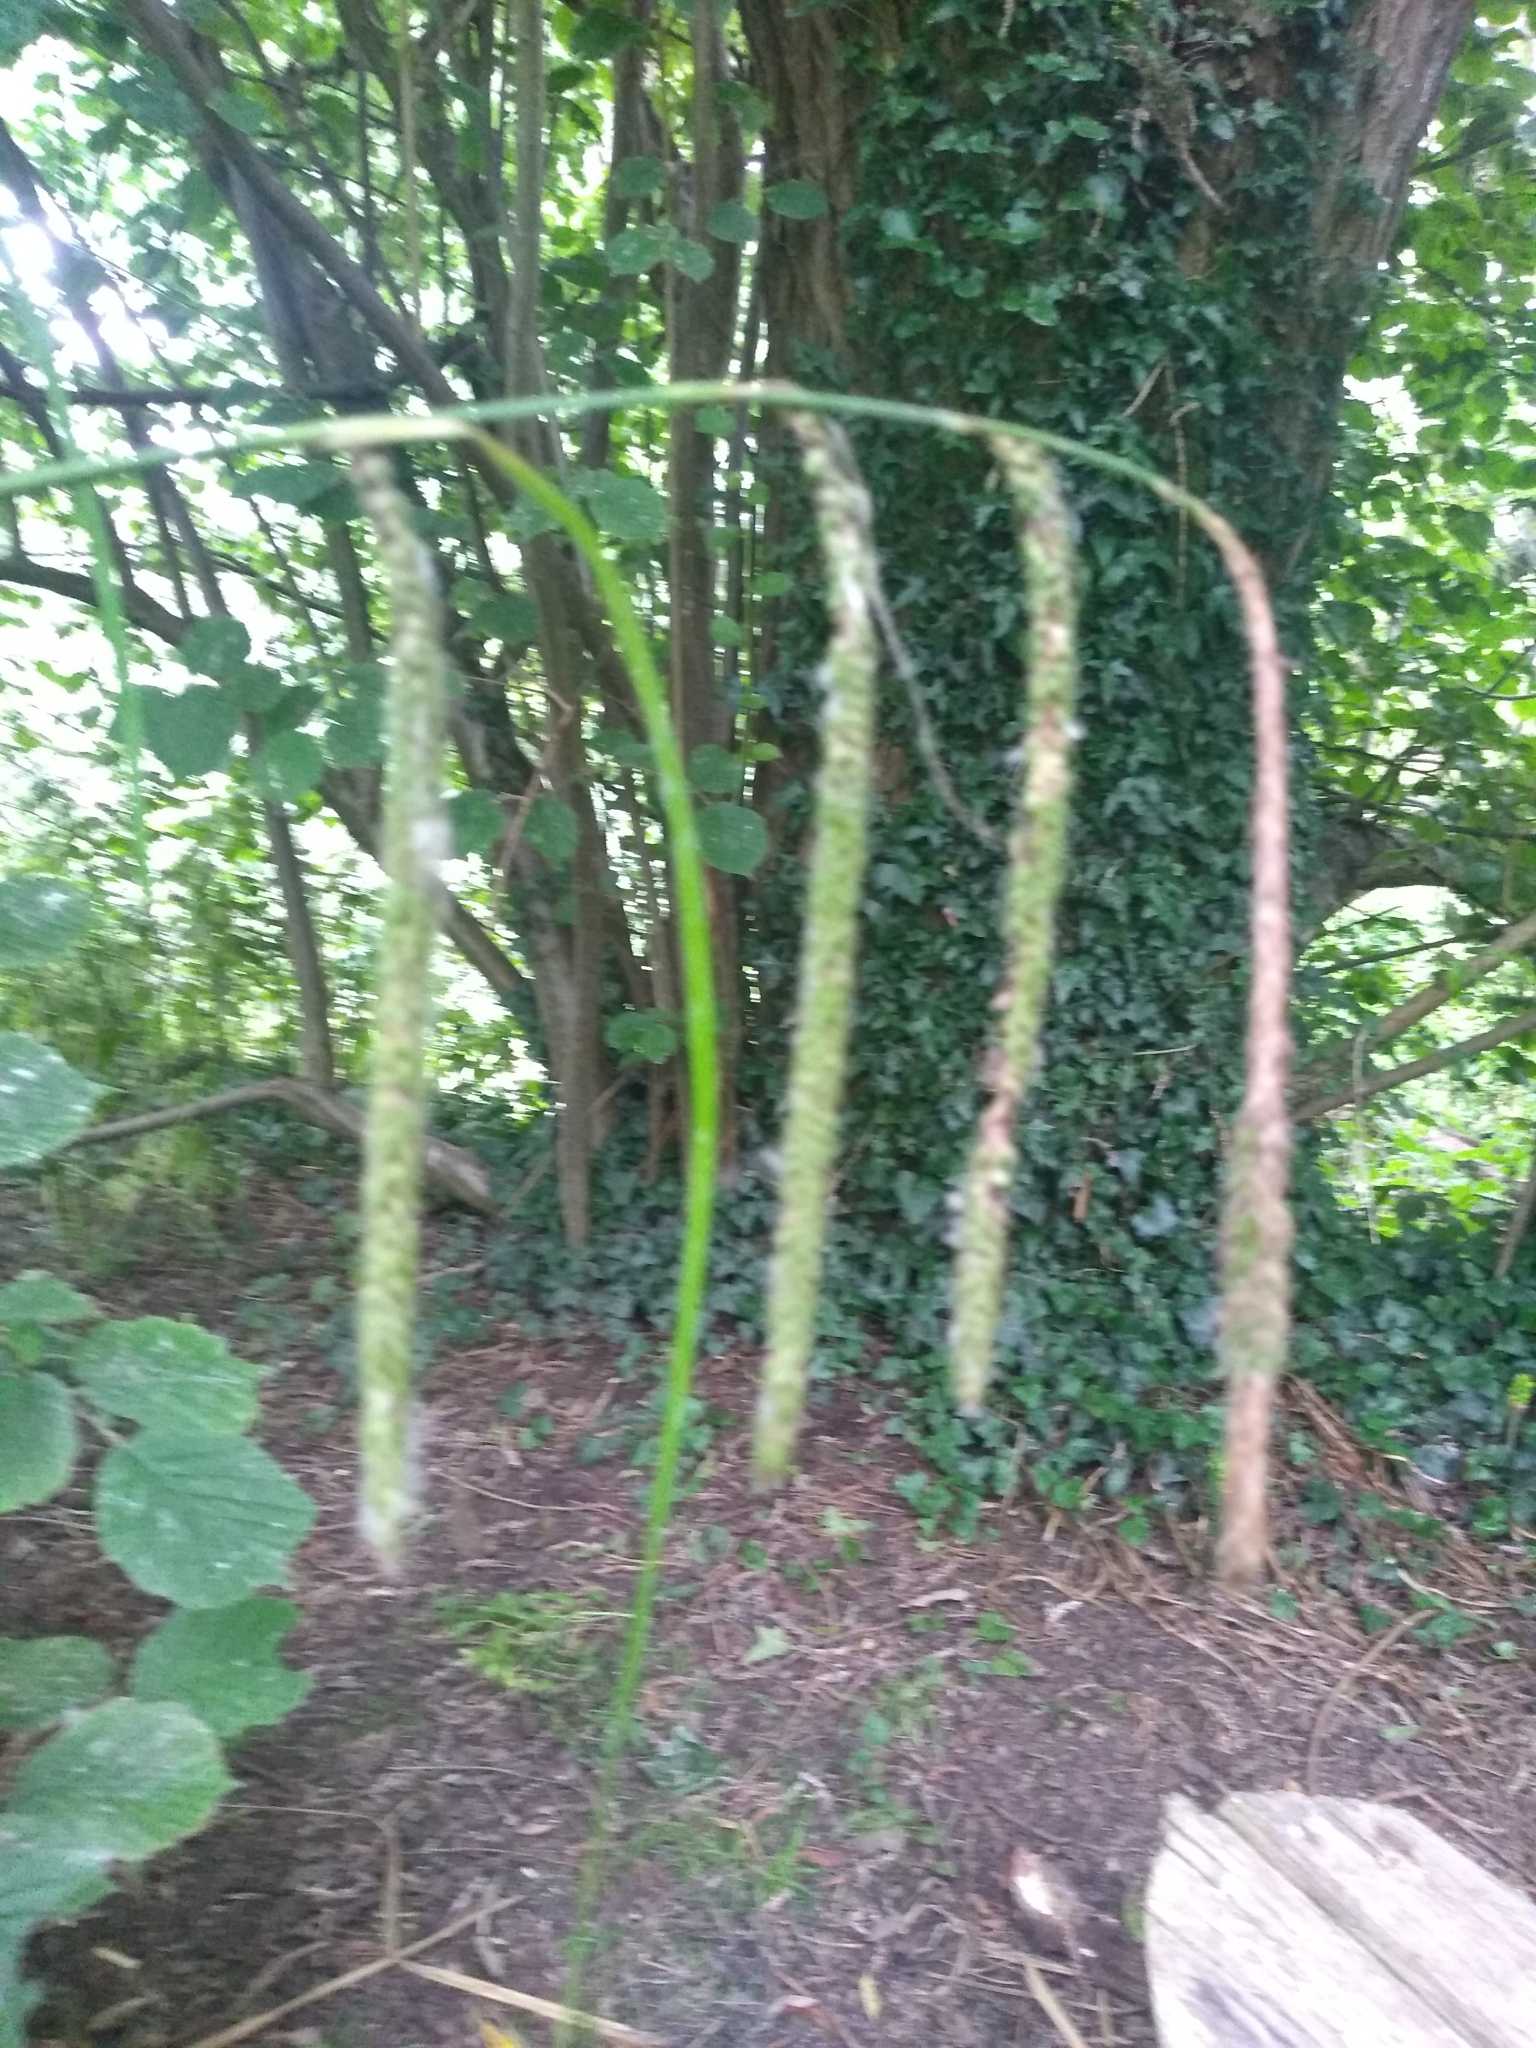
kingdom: Plantae
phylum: Tracheophyta
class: Liliopsida
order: Poales
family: Cyperaceae
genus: Carex
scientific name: Carex pendula
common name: Pendulous sedge
